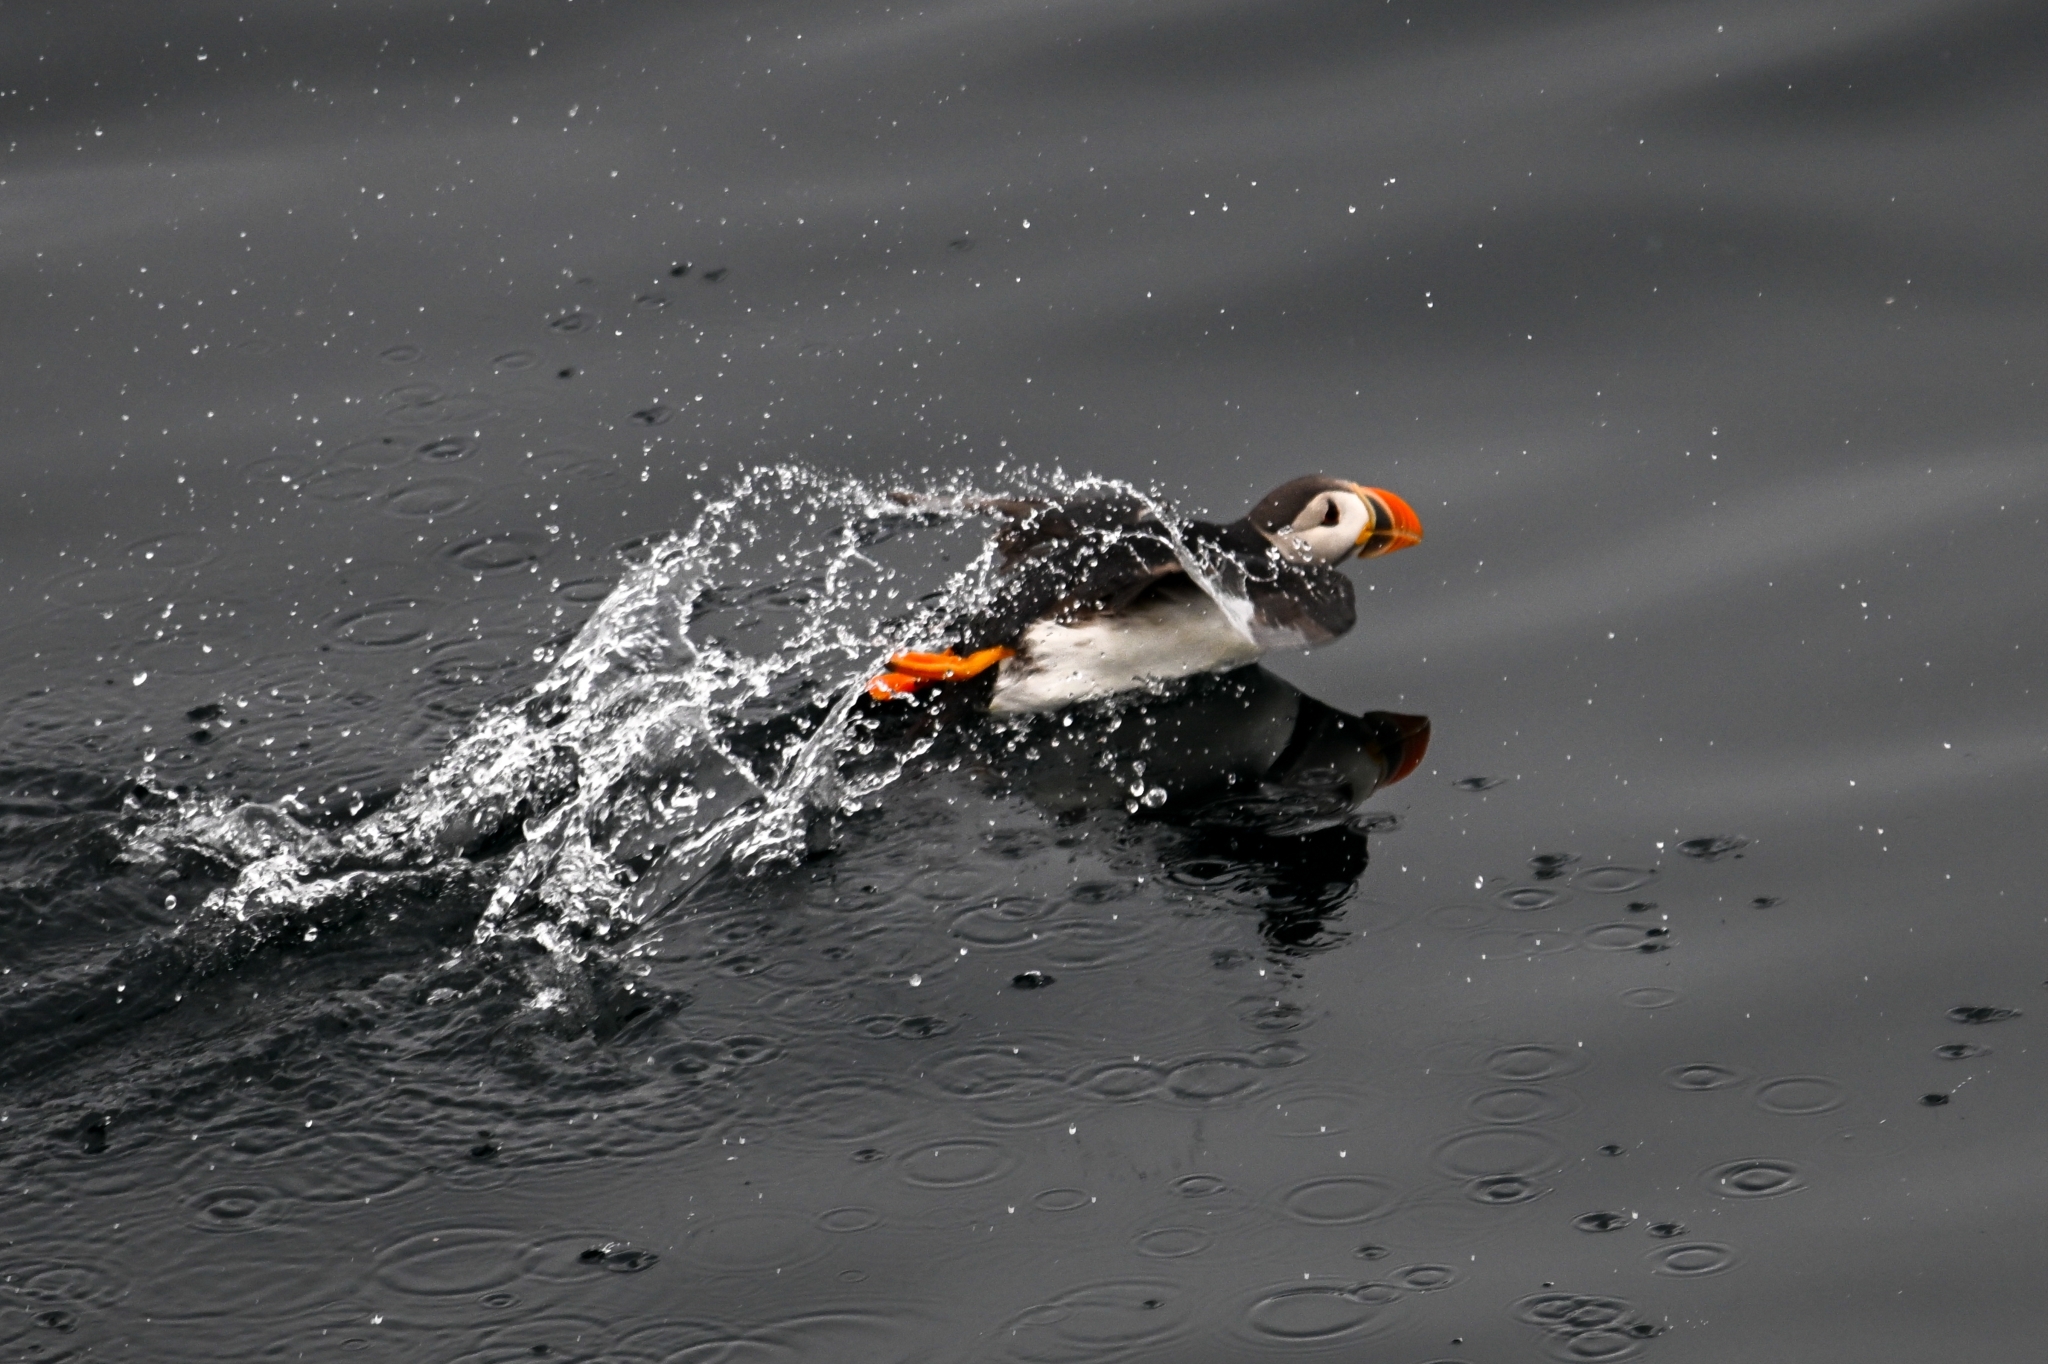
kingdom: Animalia
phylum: Chordata
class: Aves
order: Charadriiformes
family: Alcidae
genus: Fratercula
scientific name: Fratercula arctica
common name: Atlantic puffin
